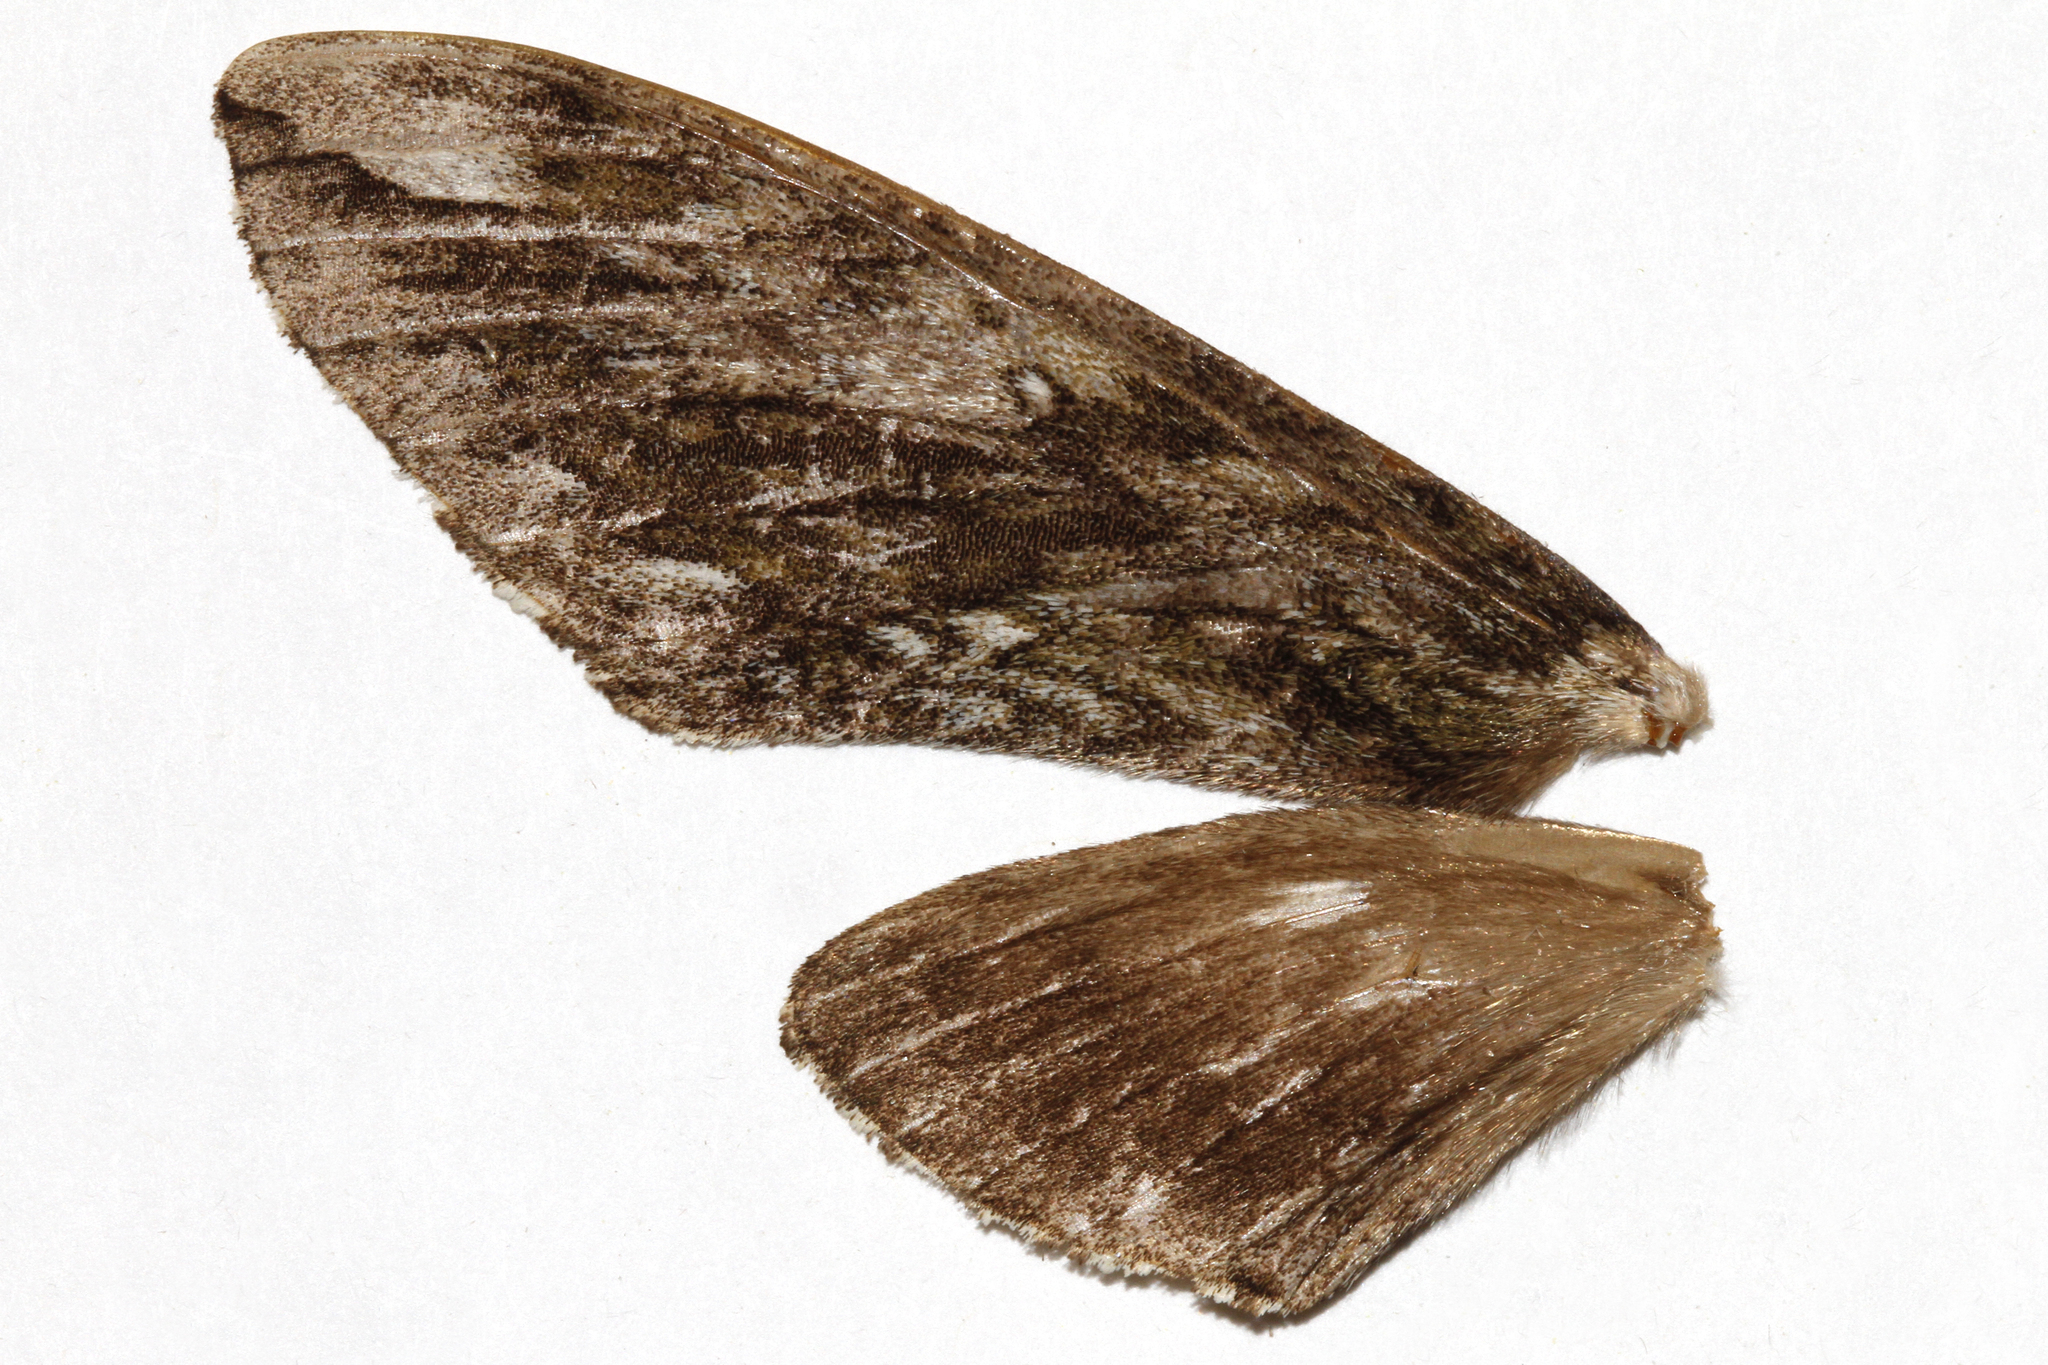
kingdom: Animalia
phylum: Arthropoda
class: Insecta
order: Lepidoptera
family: Sphingidae
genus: Ceratomia
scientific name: Ceratomia hageni
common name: Hagen's sphinx
